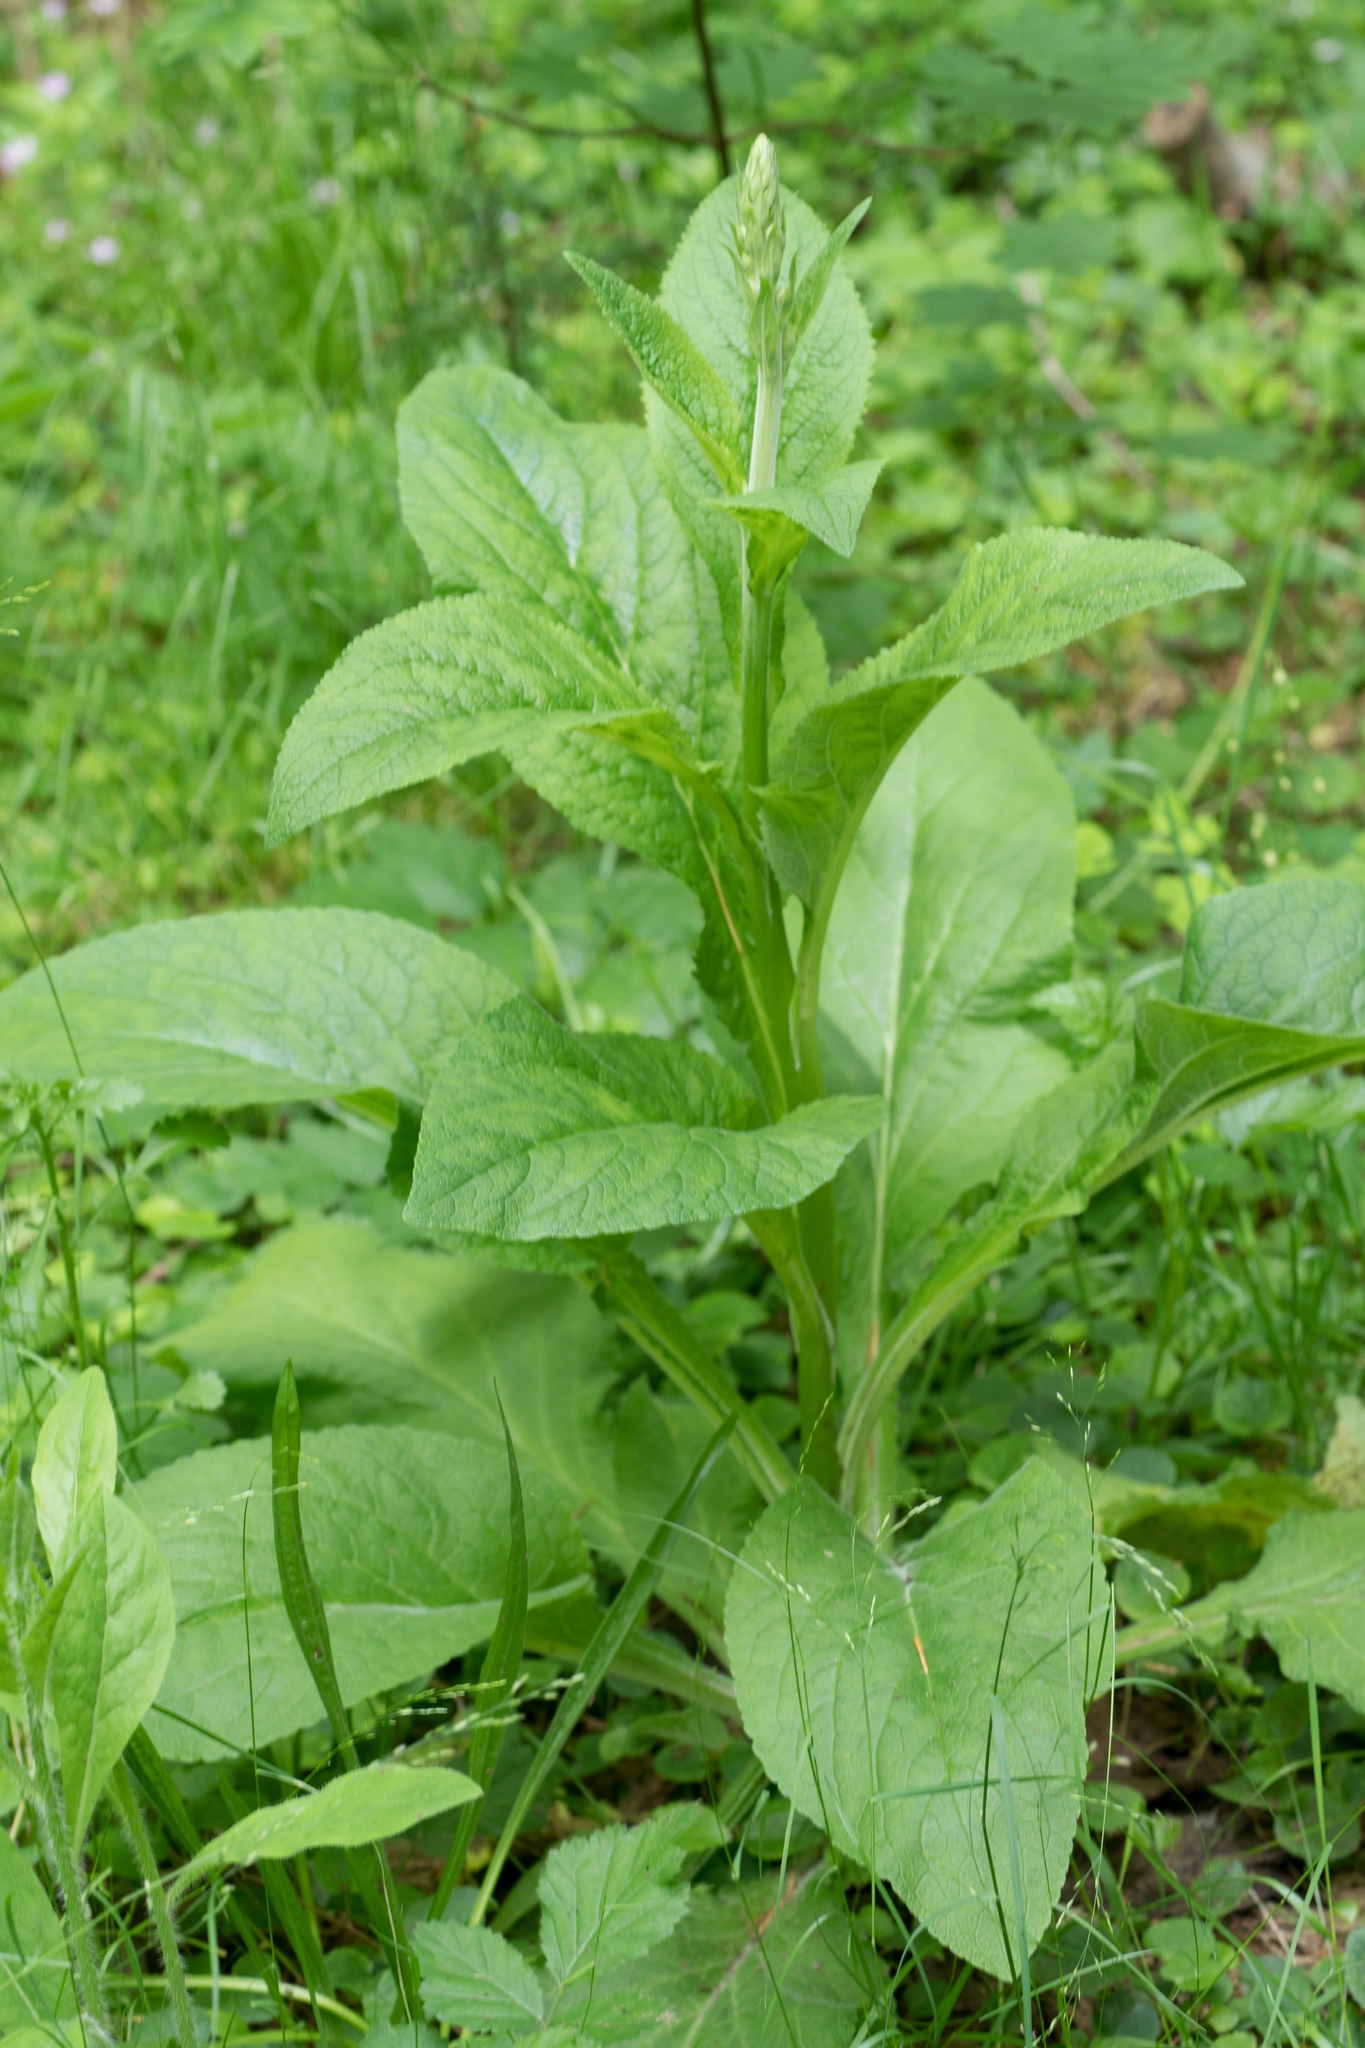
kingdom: Plantae
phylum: Tracheophyta
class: Magnoliopsida
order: Lamiales
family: Plantaginaceae
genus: Digitalis
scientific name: Digitalis purpurea
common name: Foxglove
